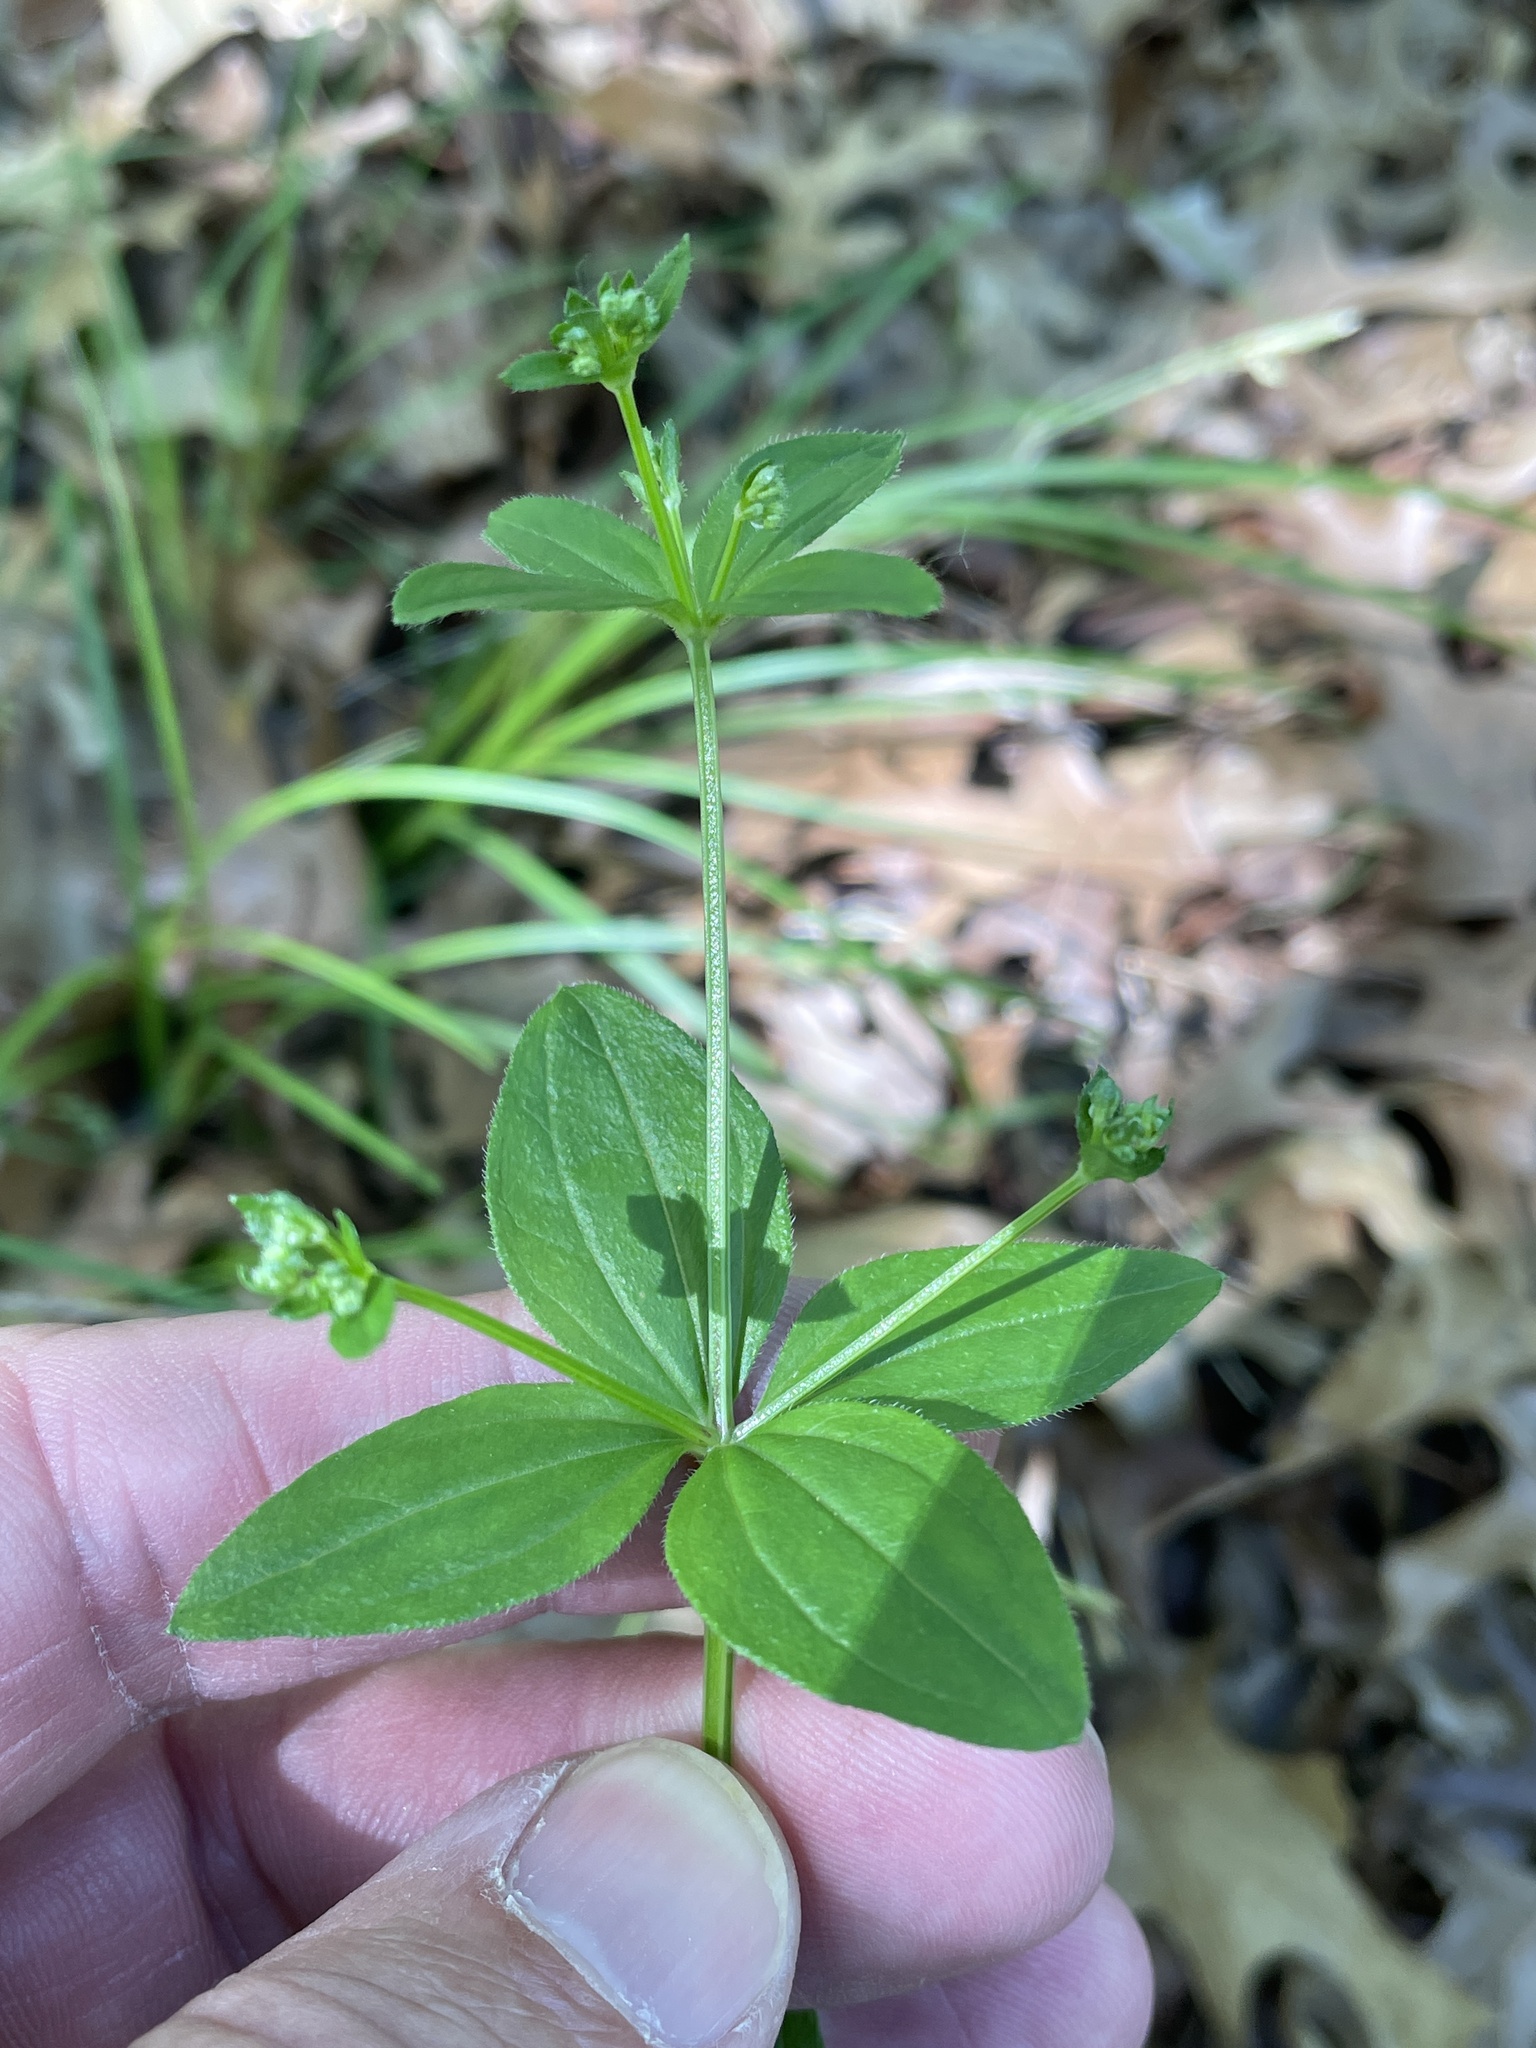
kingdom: Plantae
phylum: Tracheophyta
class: Magnoliopsida
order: Gentianales
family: Rubiaceae
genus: Galium
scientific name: Galium circaezans
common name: Forest bedstraw
